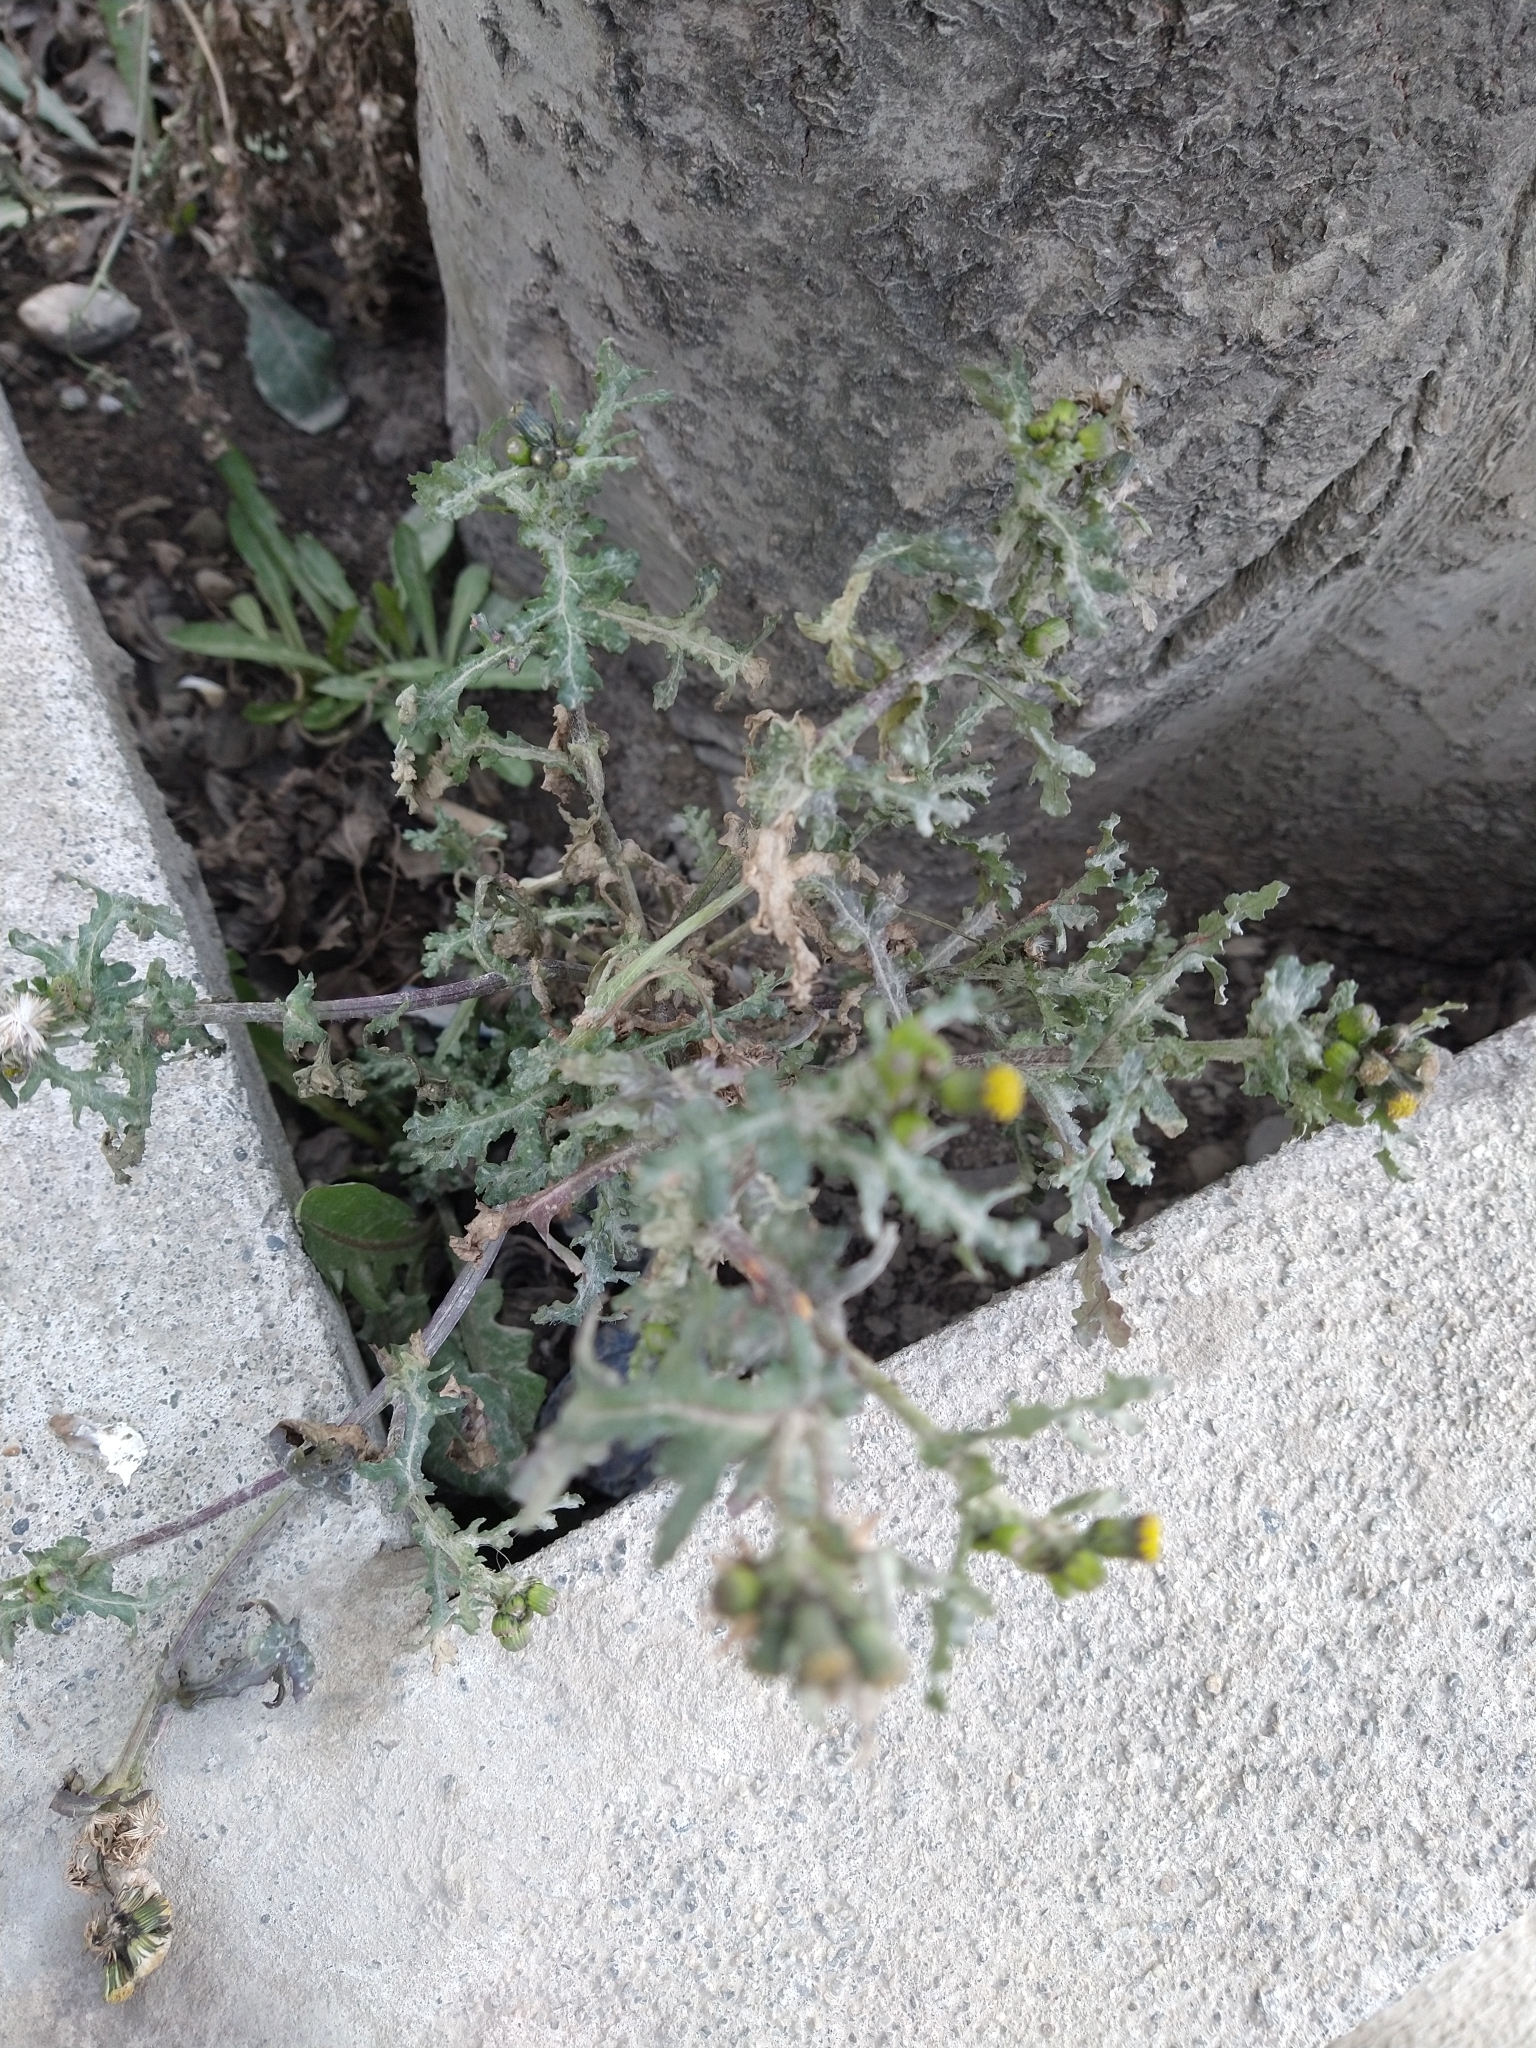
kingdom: Plantae
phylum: Tracheophyta
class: Magnoliopsida
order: Asterales
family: Asteraceae
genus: Senecio
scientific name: Senecio vulgaris
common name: Old-man-in-the-spring
